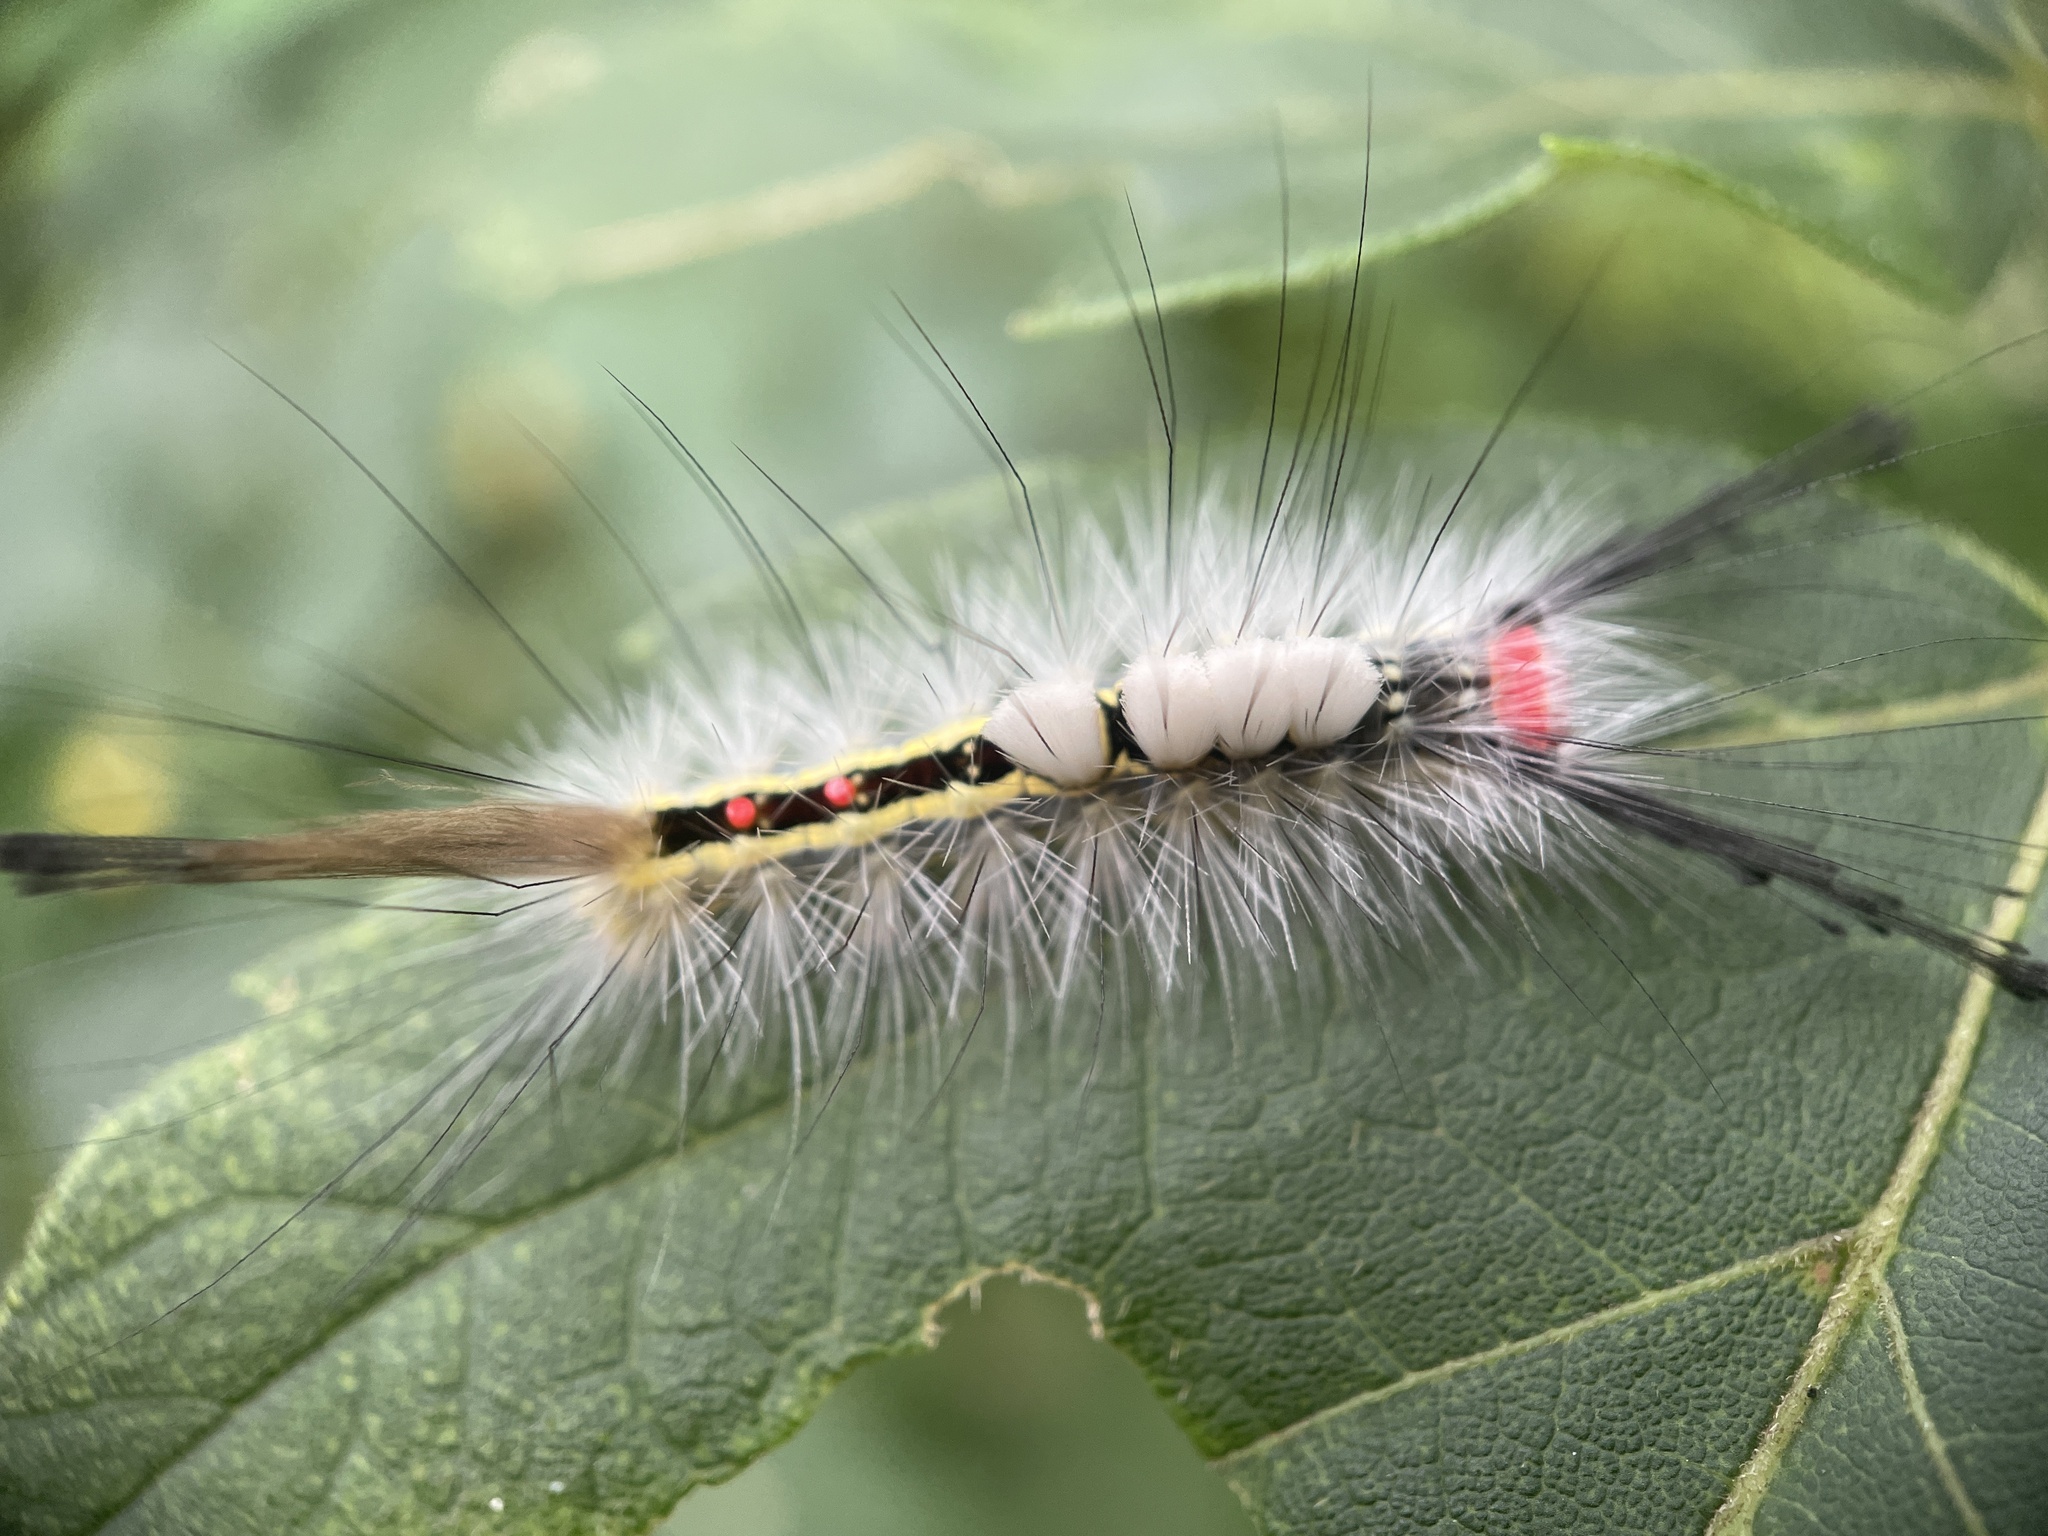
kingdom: Animalia
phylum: Arthropoda
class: Insecta
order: Lepidoptera
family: Erebidae
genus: Orgyia
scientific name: Orgyia leucostigma
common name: White-marked tussock moth
